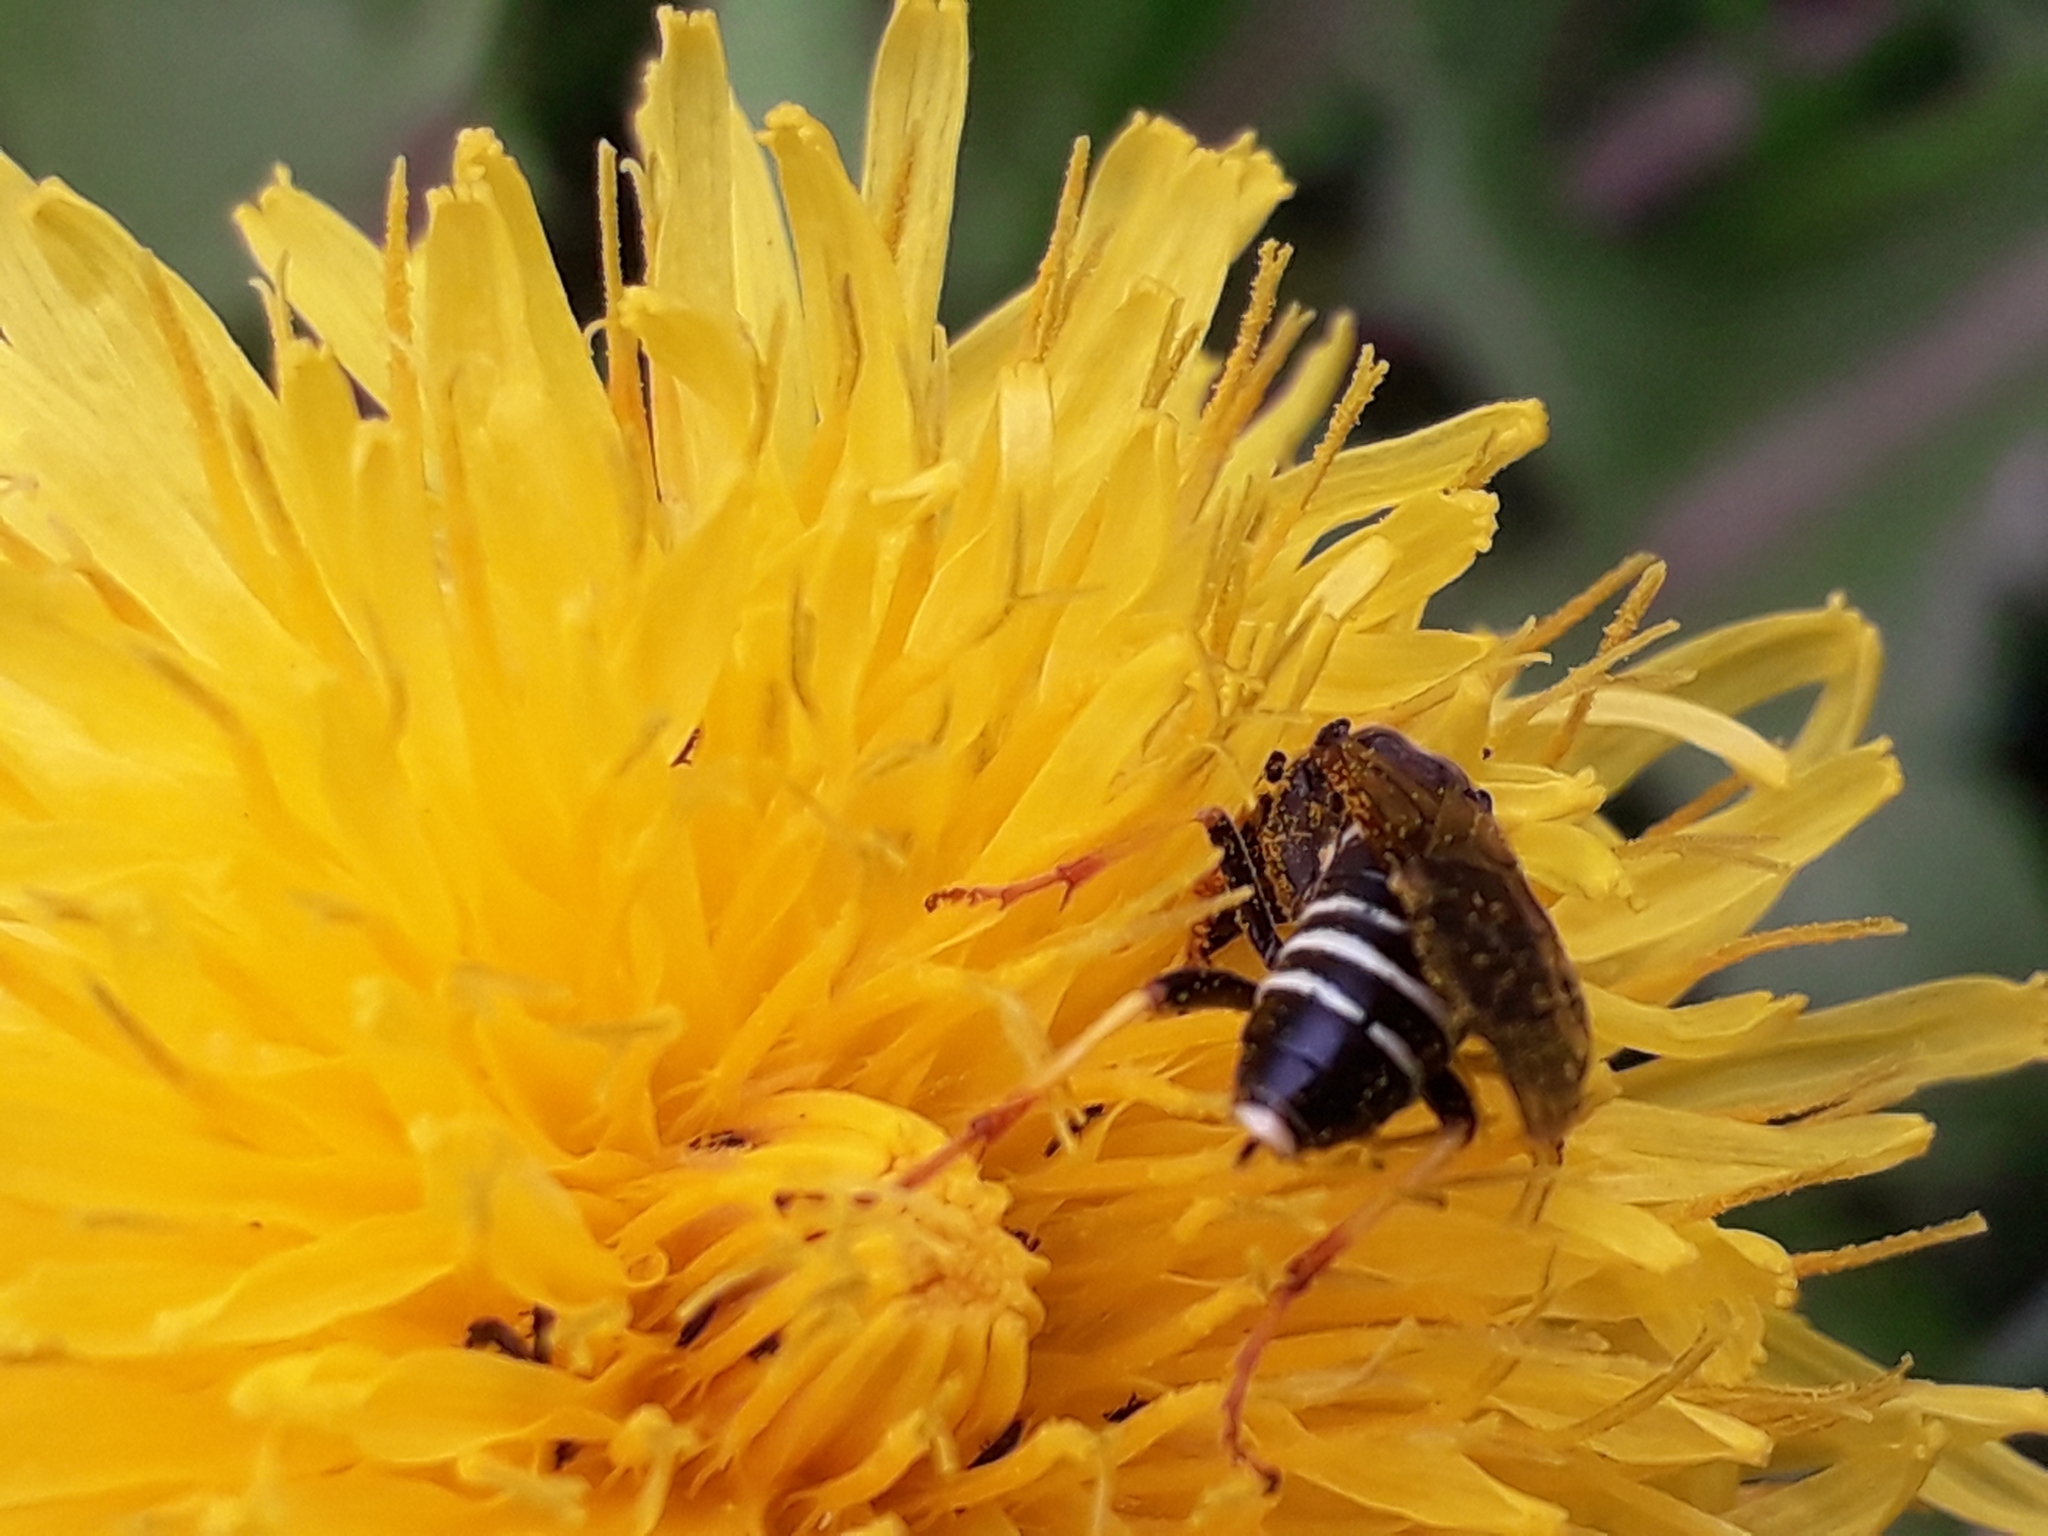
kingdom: Animalia
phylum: Arthropoda
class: Insecta
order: Hymenoptera
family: Tenthredinidae
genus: Tenthredo
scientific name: Tenthredo koehleri
